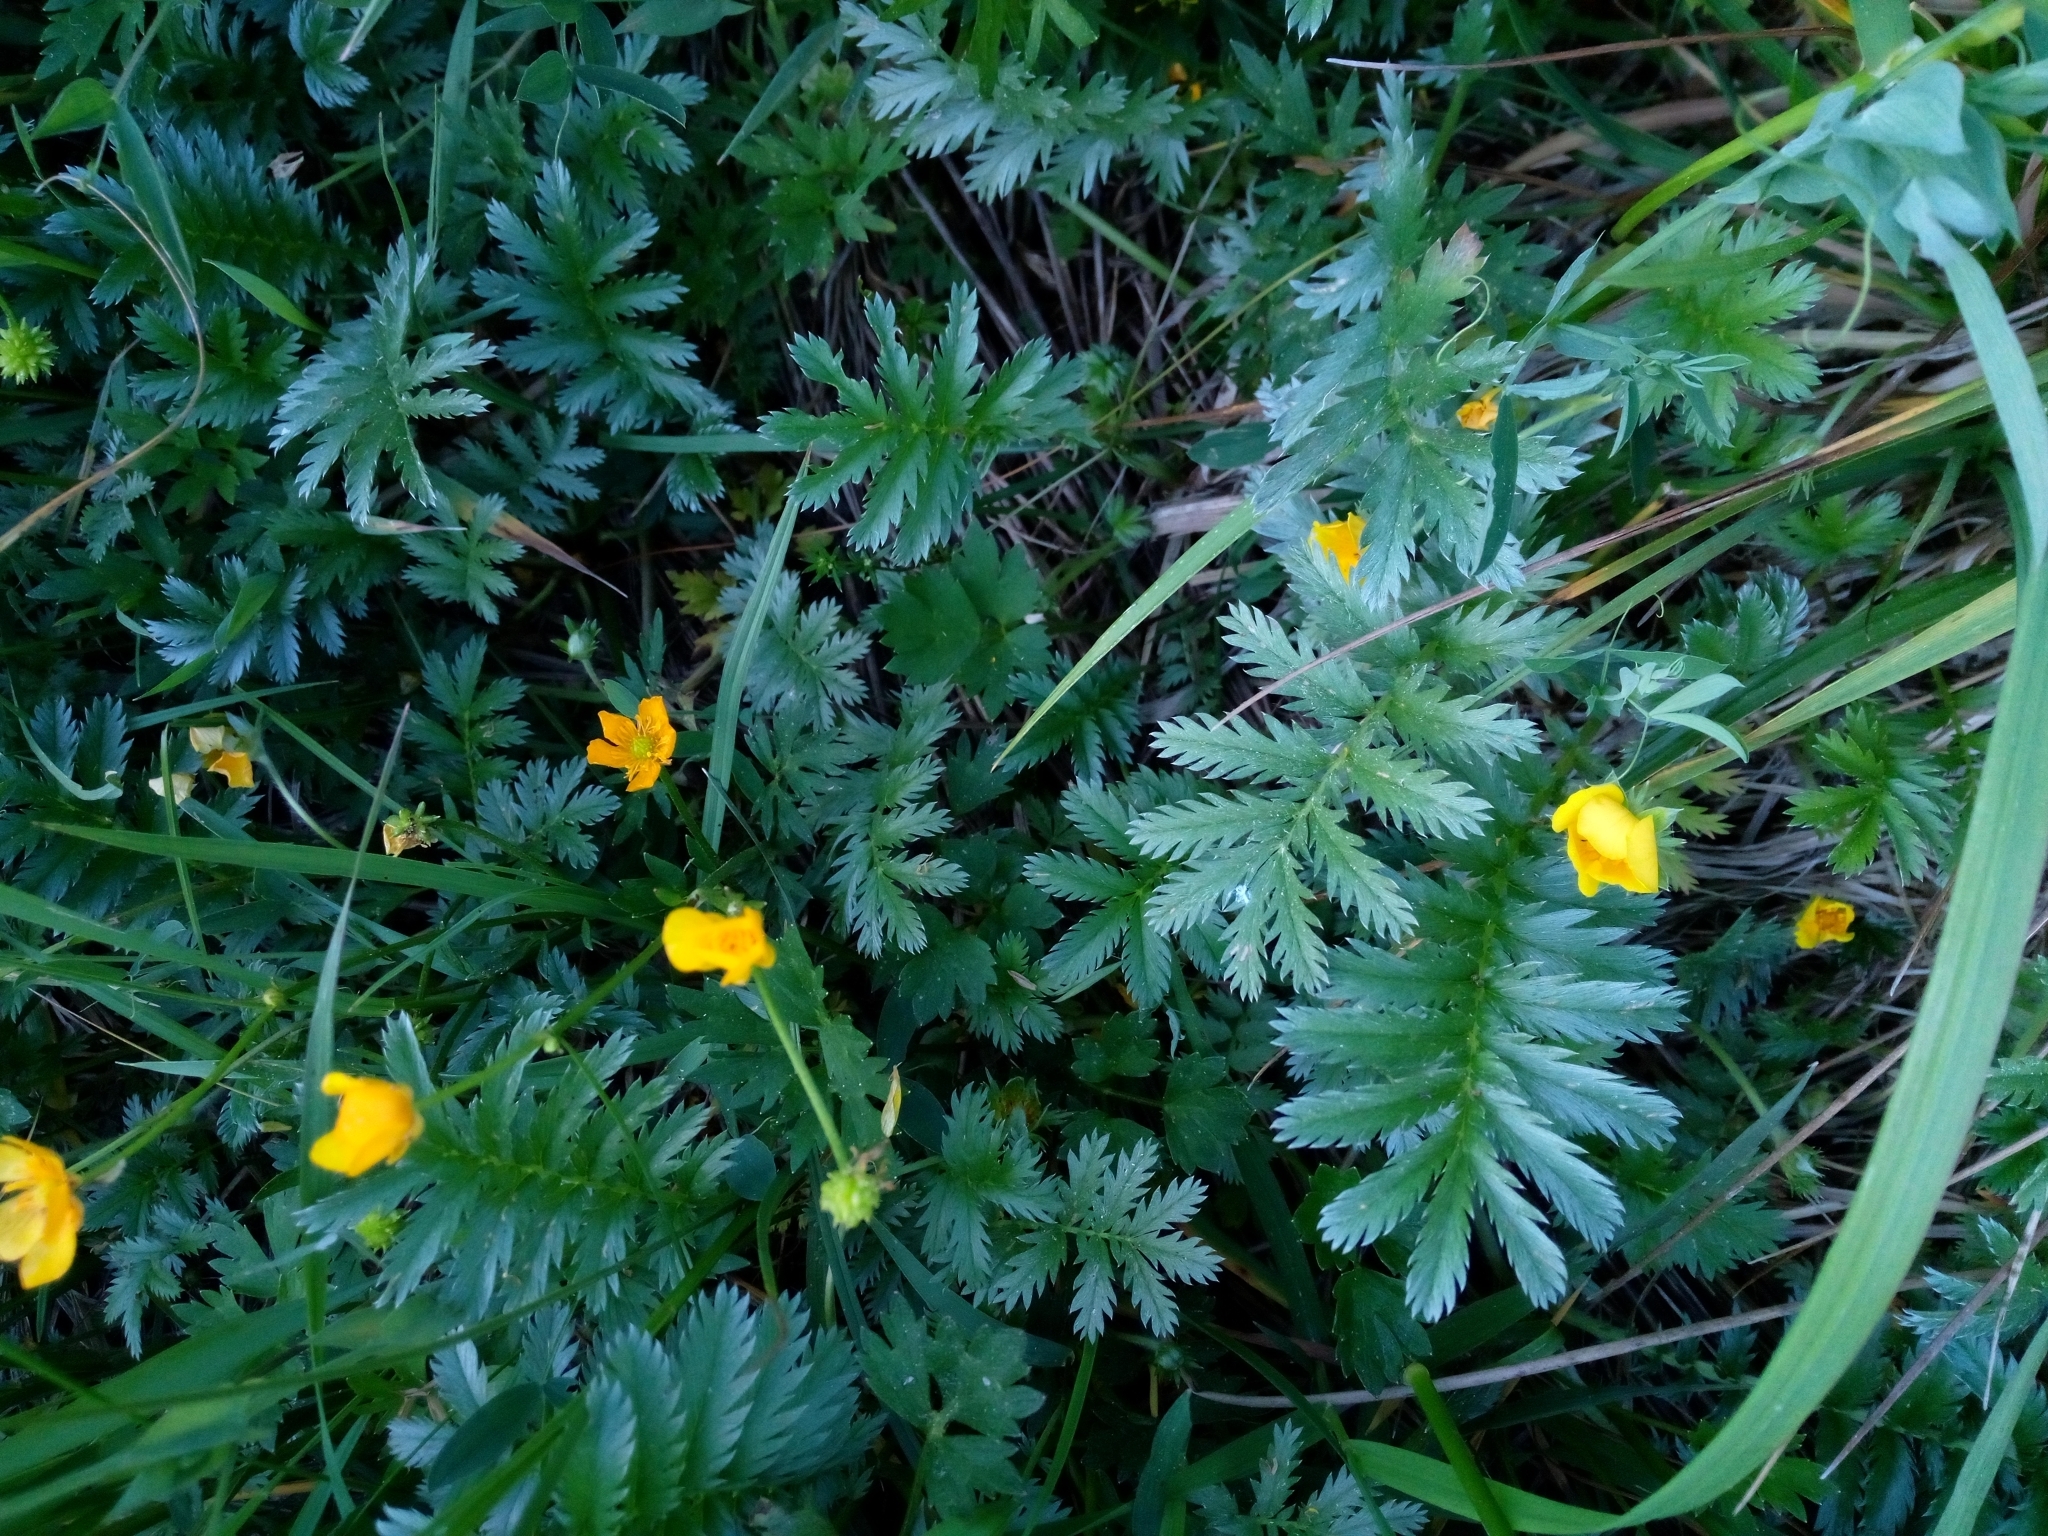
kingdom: Plantae
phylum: Tracheophyta
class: Magnoliopsida
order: Rosales
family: Rosaceae
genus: Argentina
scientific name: Argentina anserina
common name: Common silverweed
